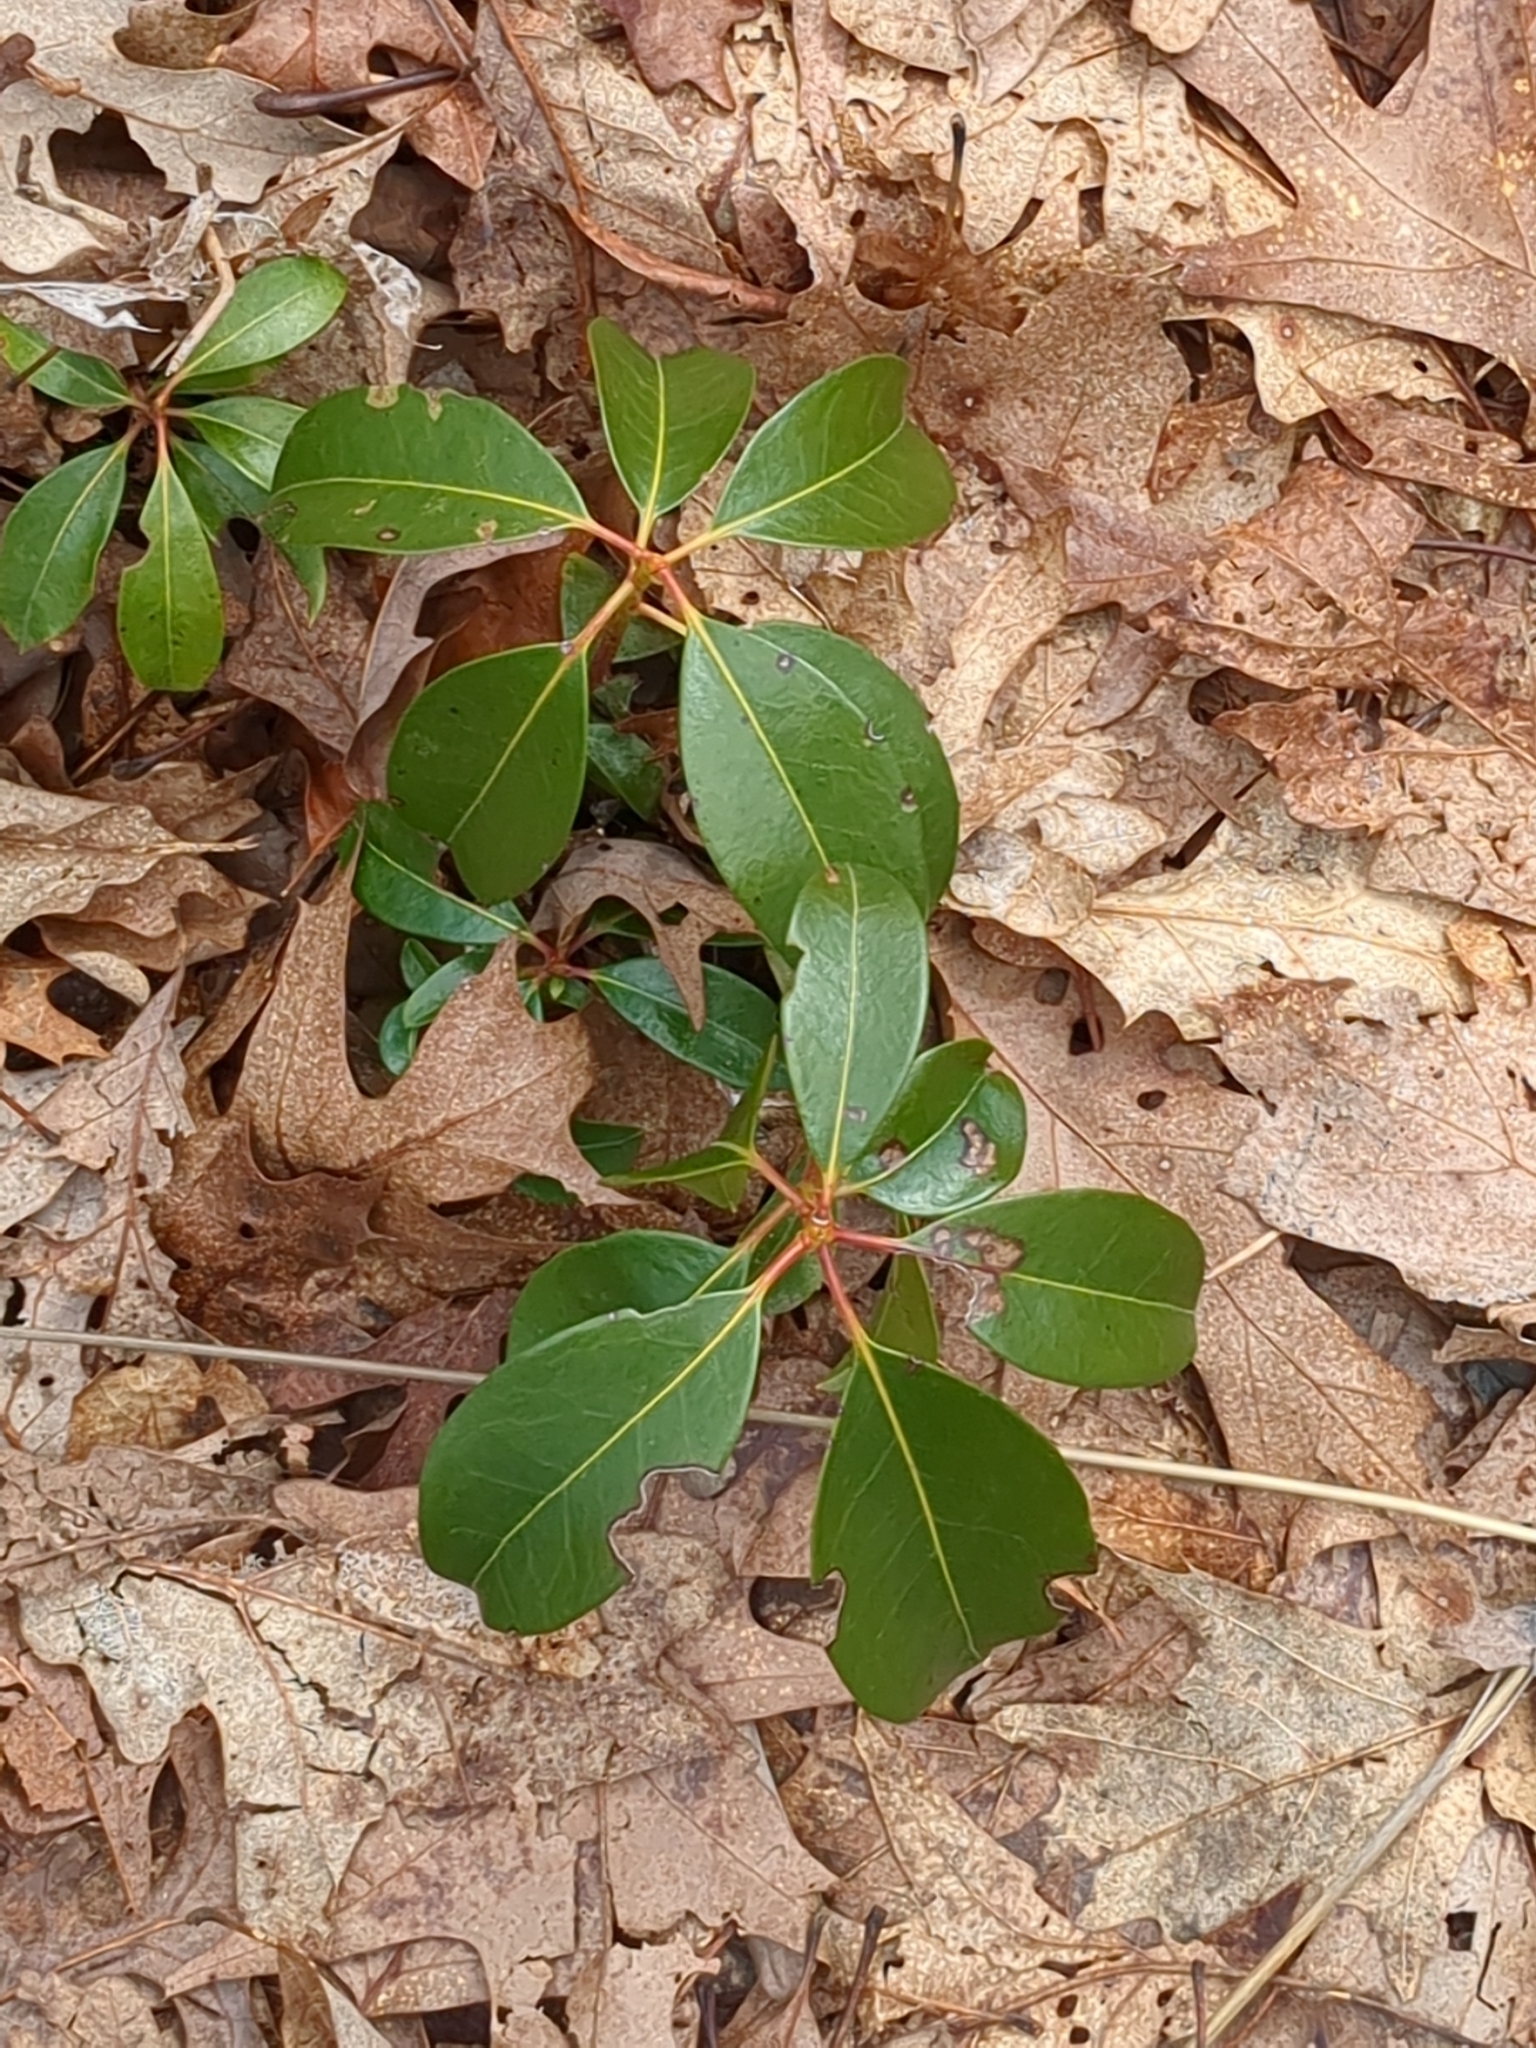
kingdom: Plantae
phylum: Tracheophyta
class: Magnoliopsida
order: Ericales
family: Ericaceae
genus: Kalmia
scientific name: Kalmia latifolia
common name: Mountain-laurel
